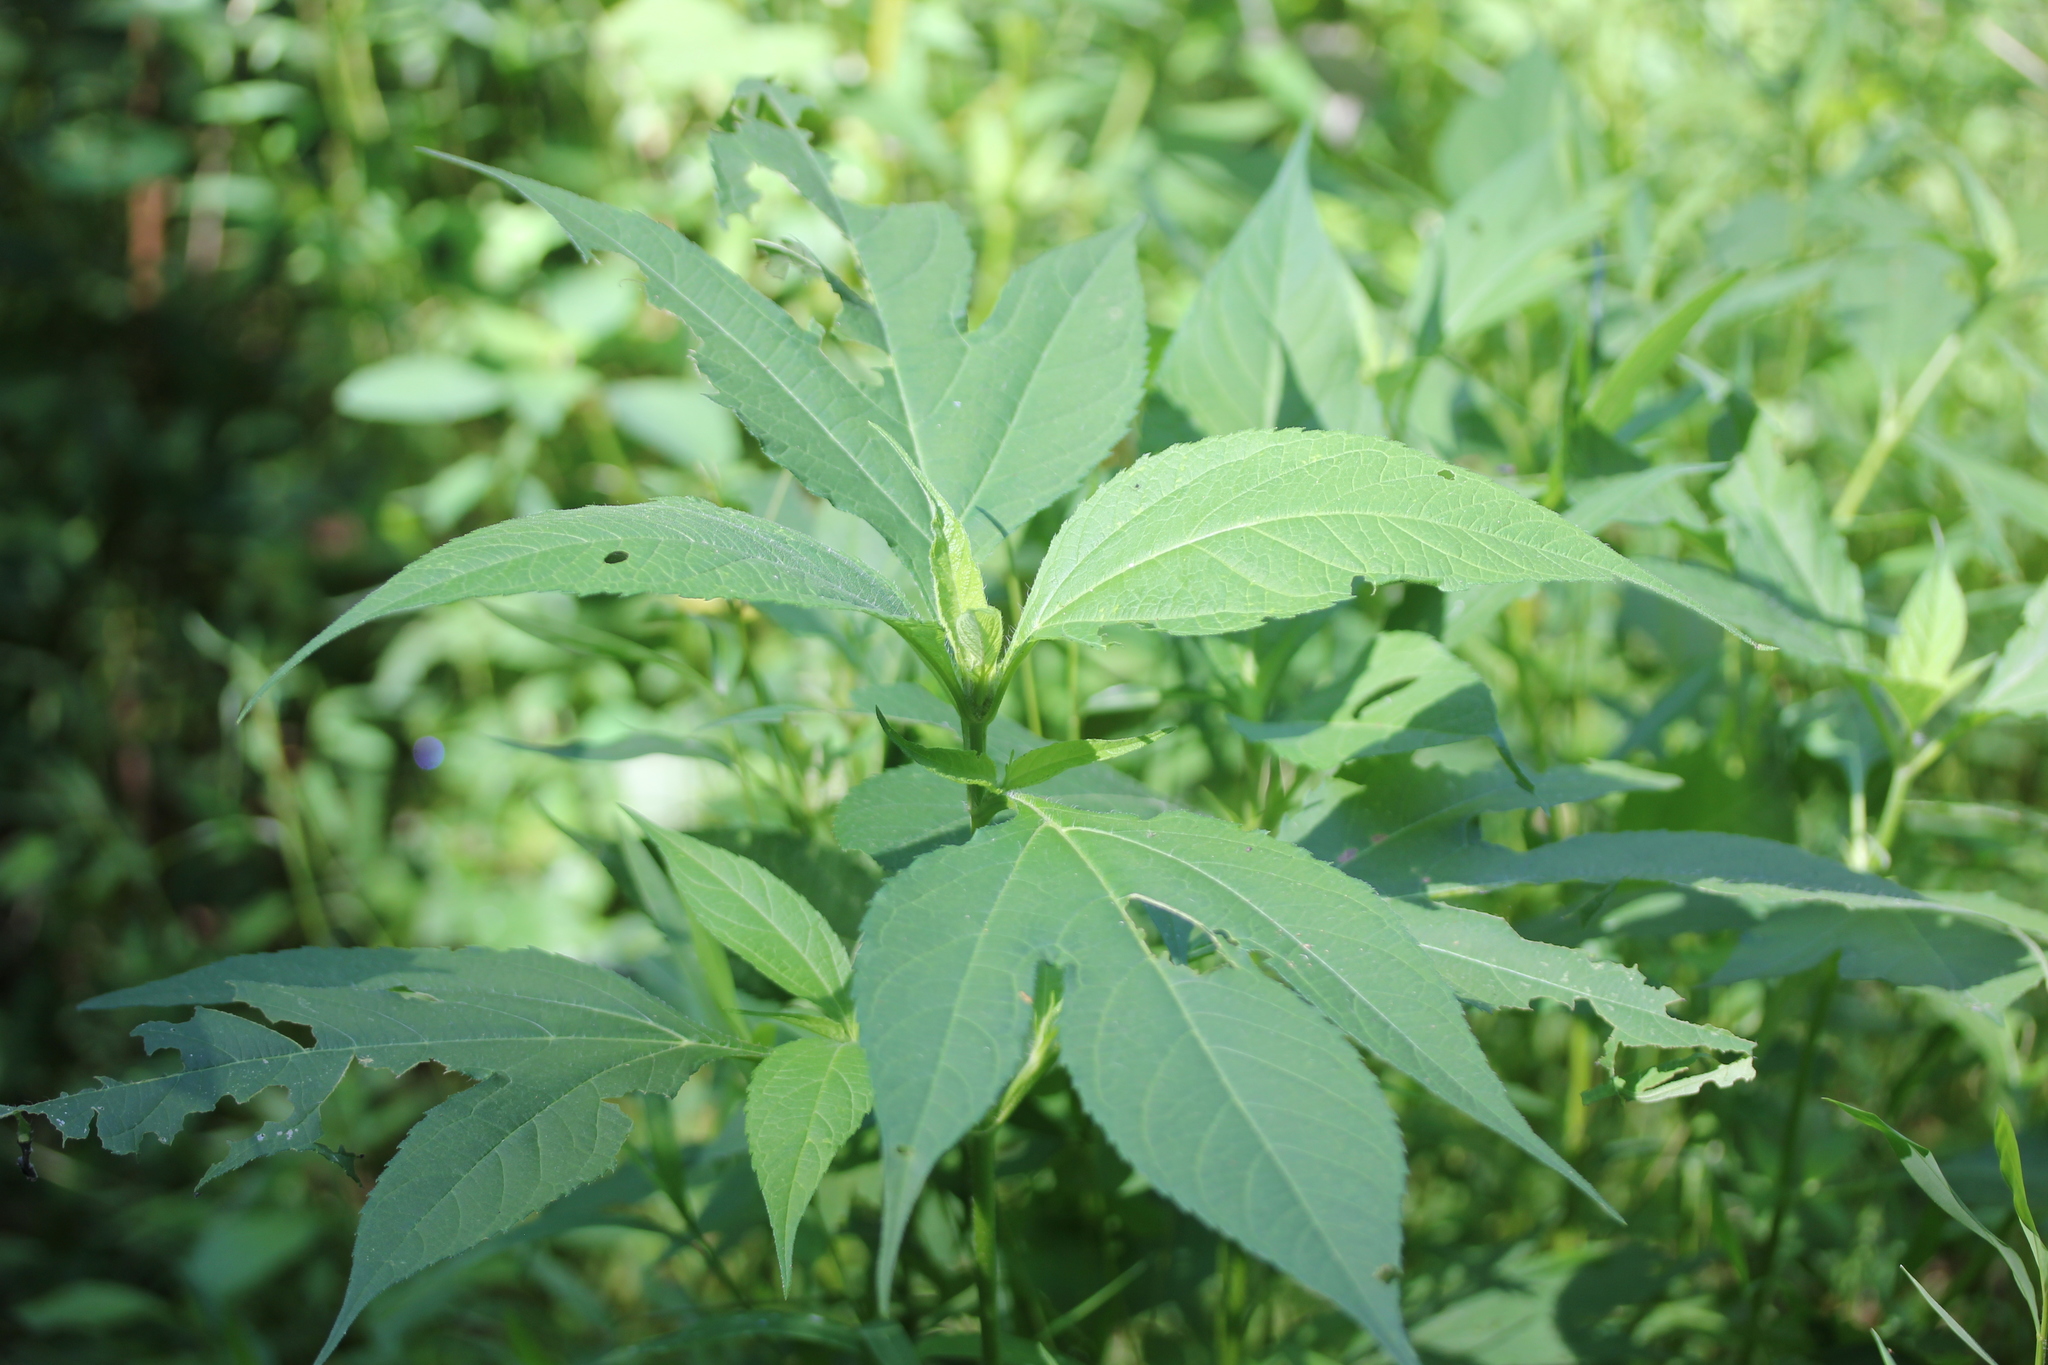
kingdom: Plantae
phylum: Tracheophyta
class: Magnoliopsida
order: Asterales
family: Asteraceae
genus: Ambrosia
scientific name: Ambrosia trifida
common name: Giant ragweed
